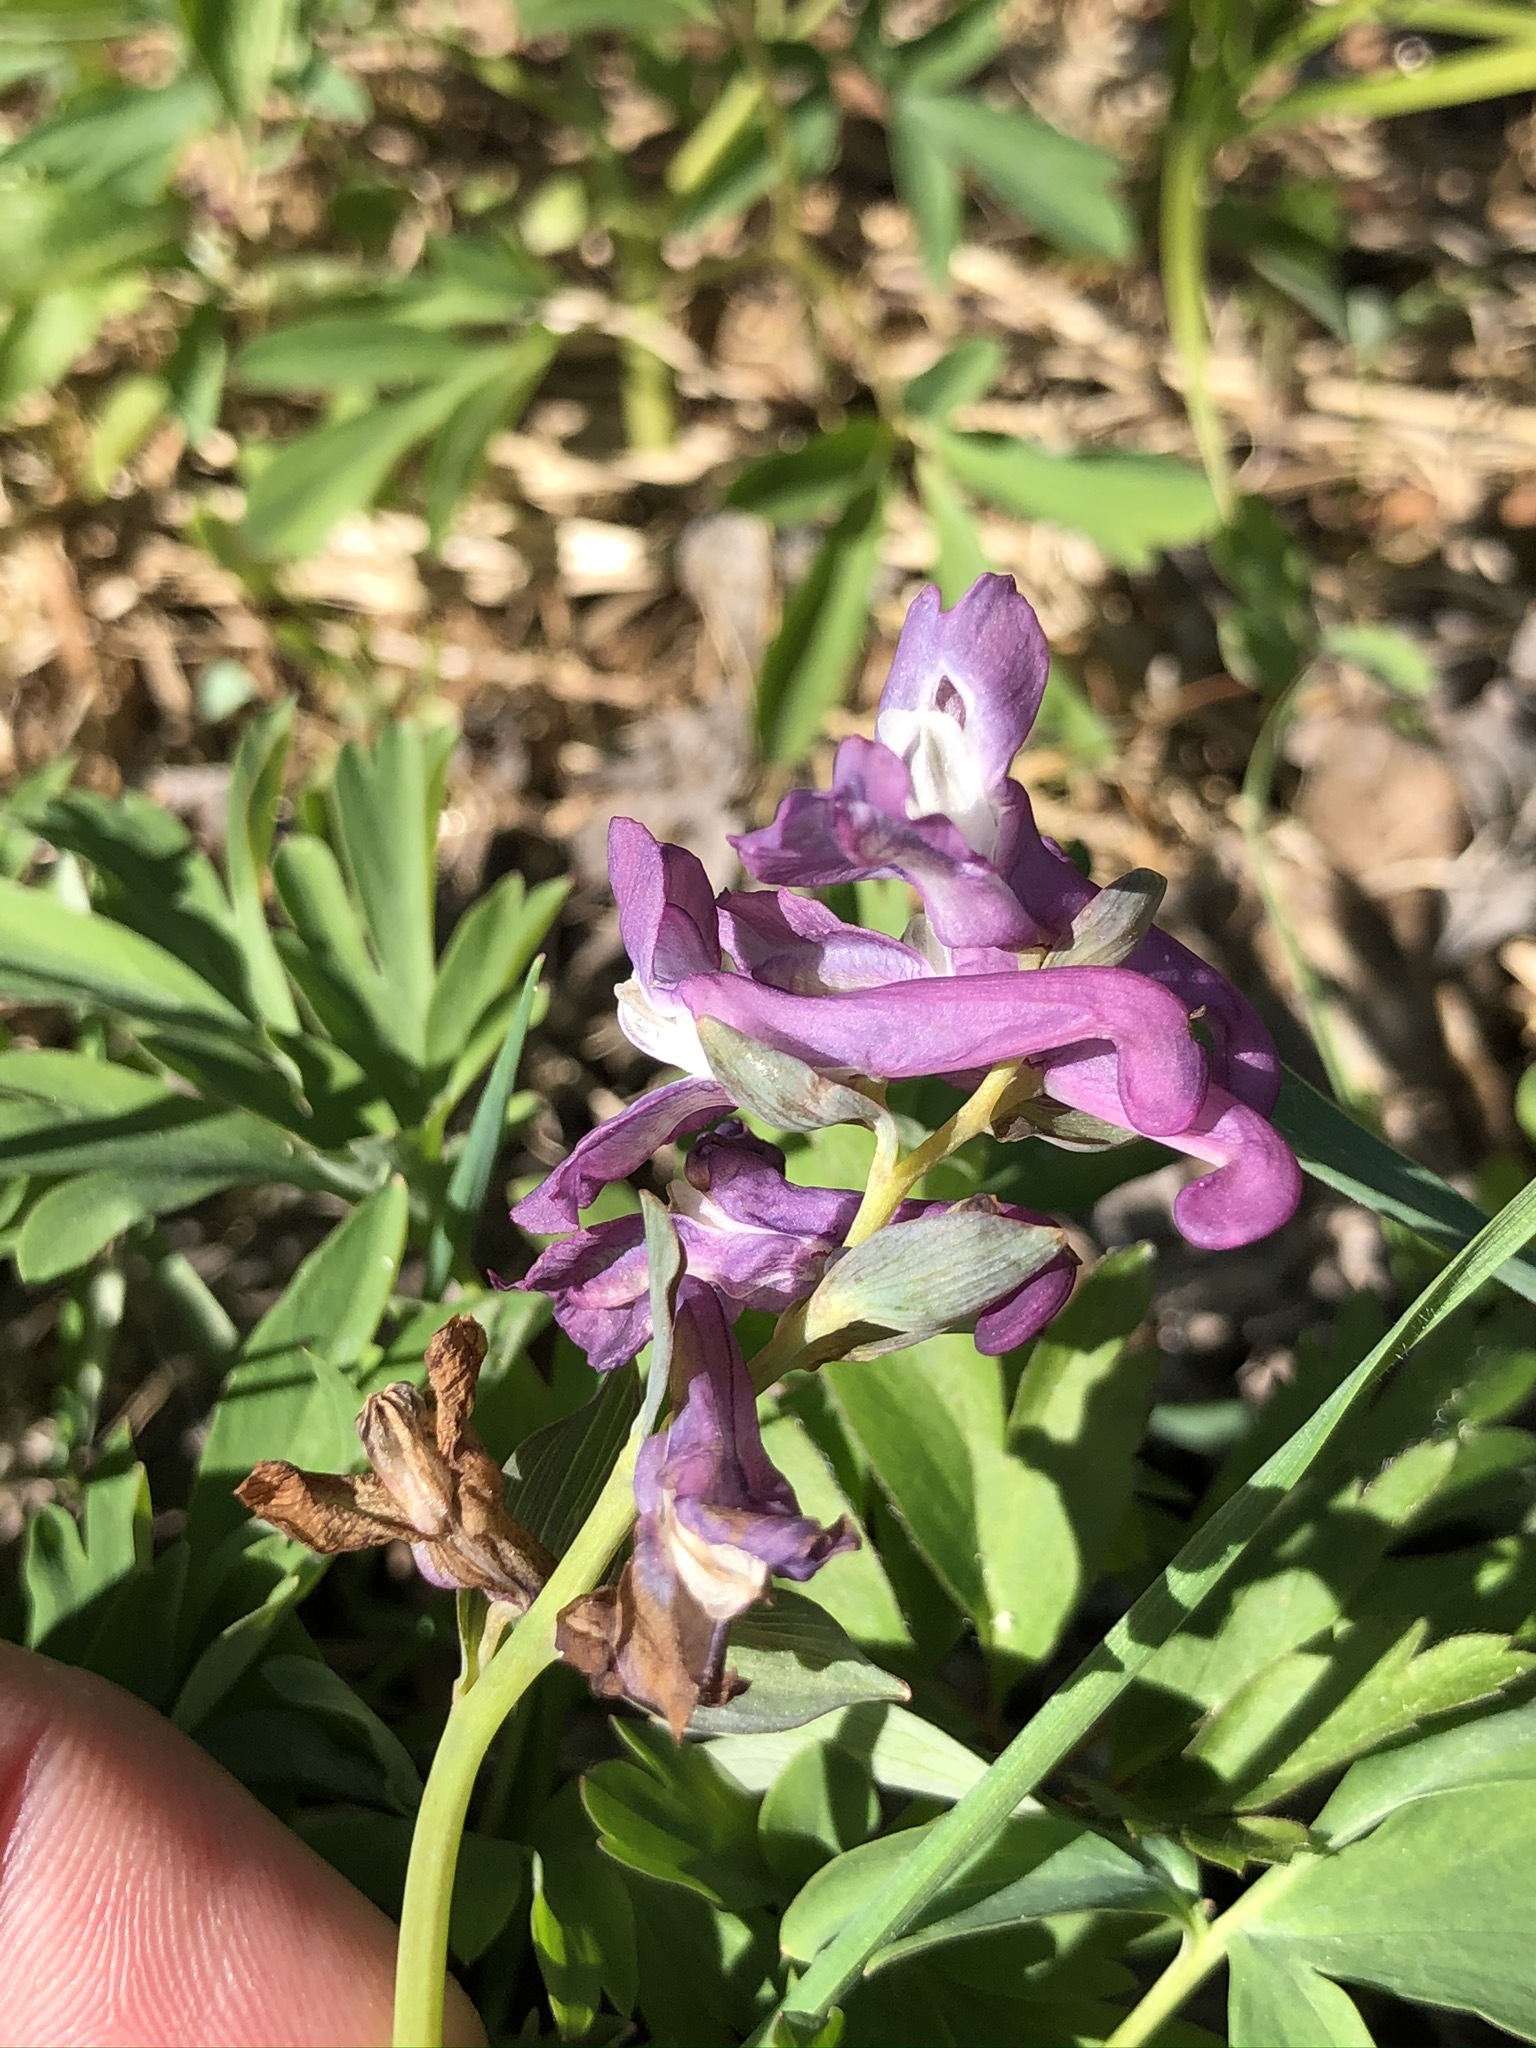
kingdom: Plantae
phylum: Tracheophyta
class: Magnoliopsida
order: Ranunculales
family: Papaveraceae
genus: Corydalis
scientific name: Corydalis cava
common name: Hollowroot
